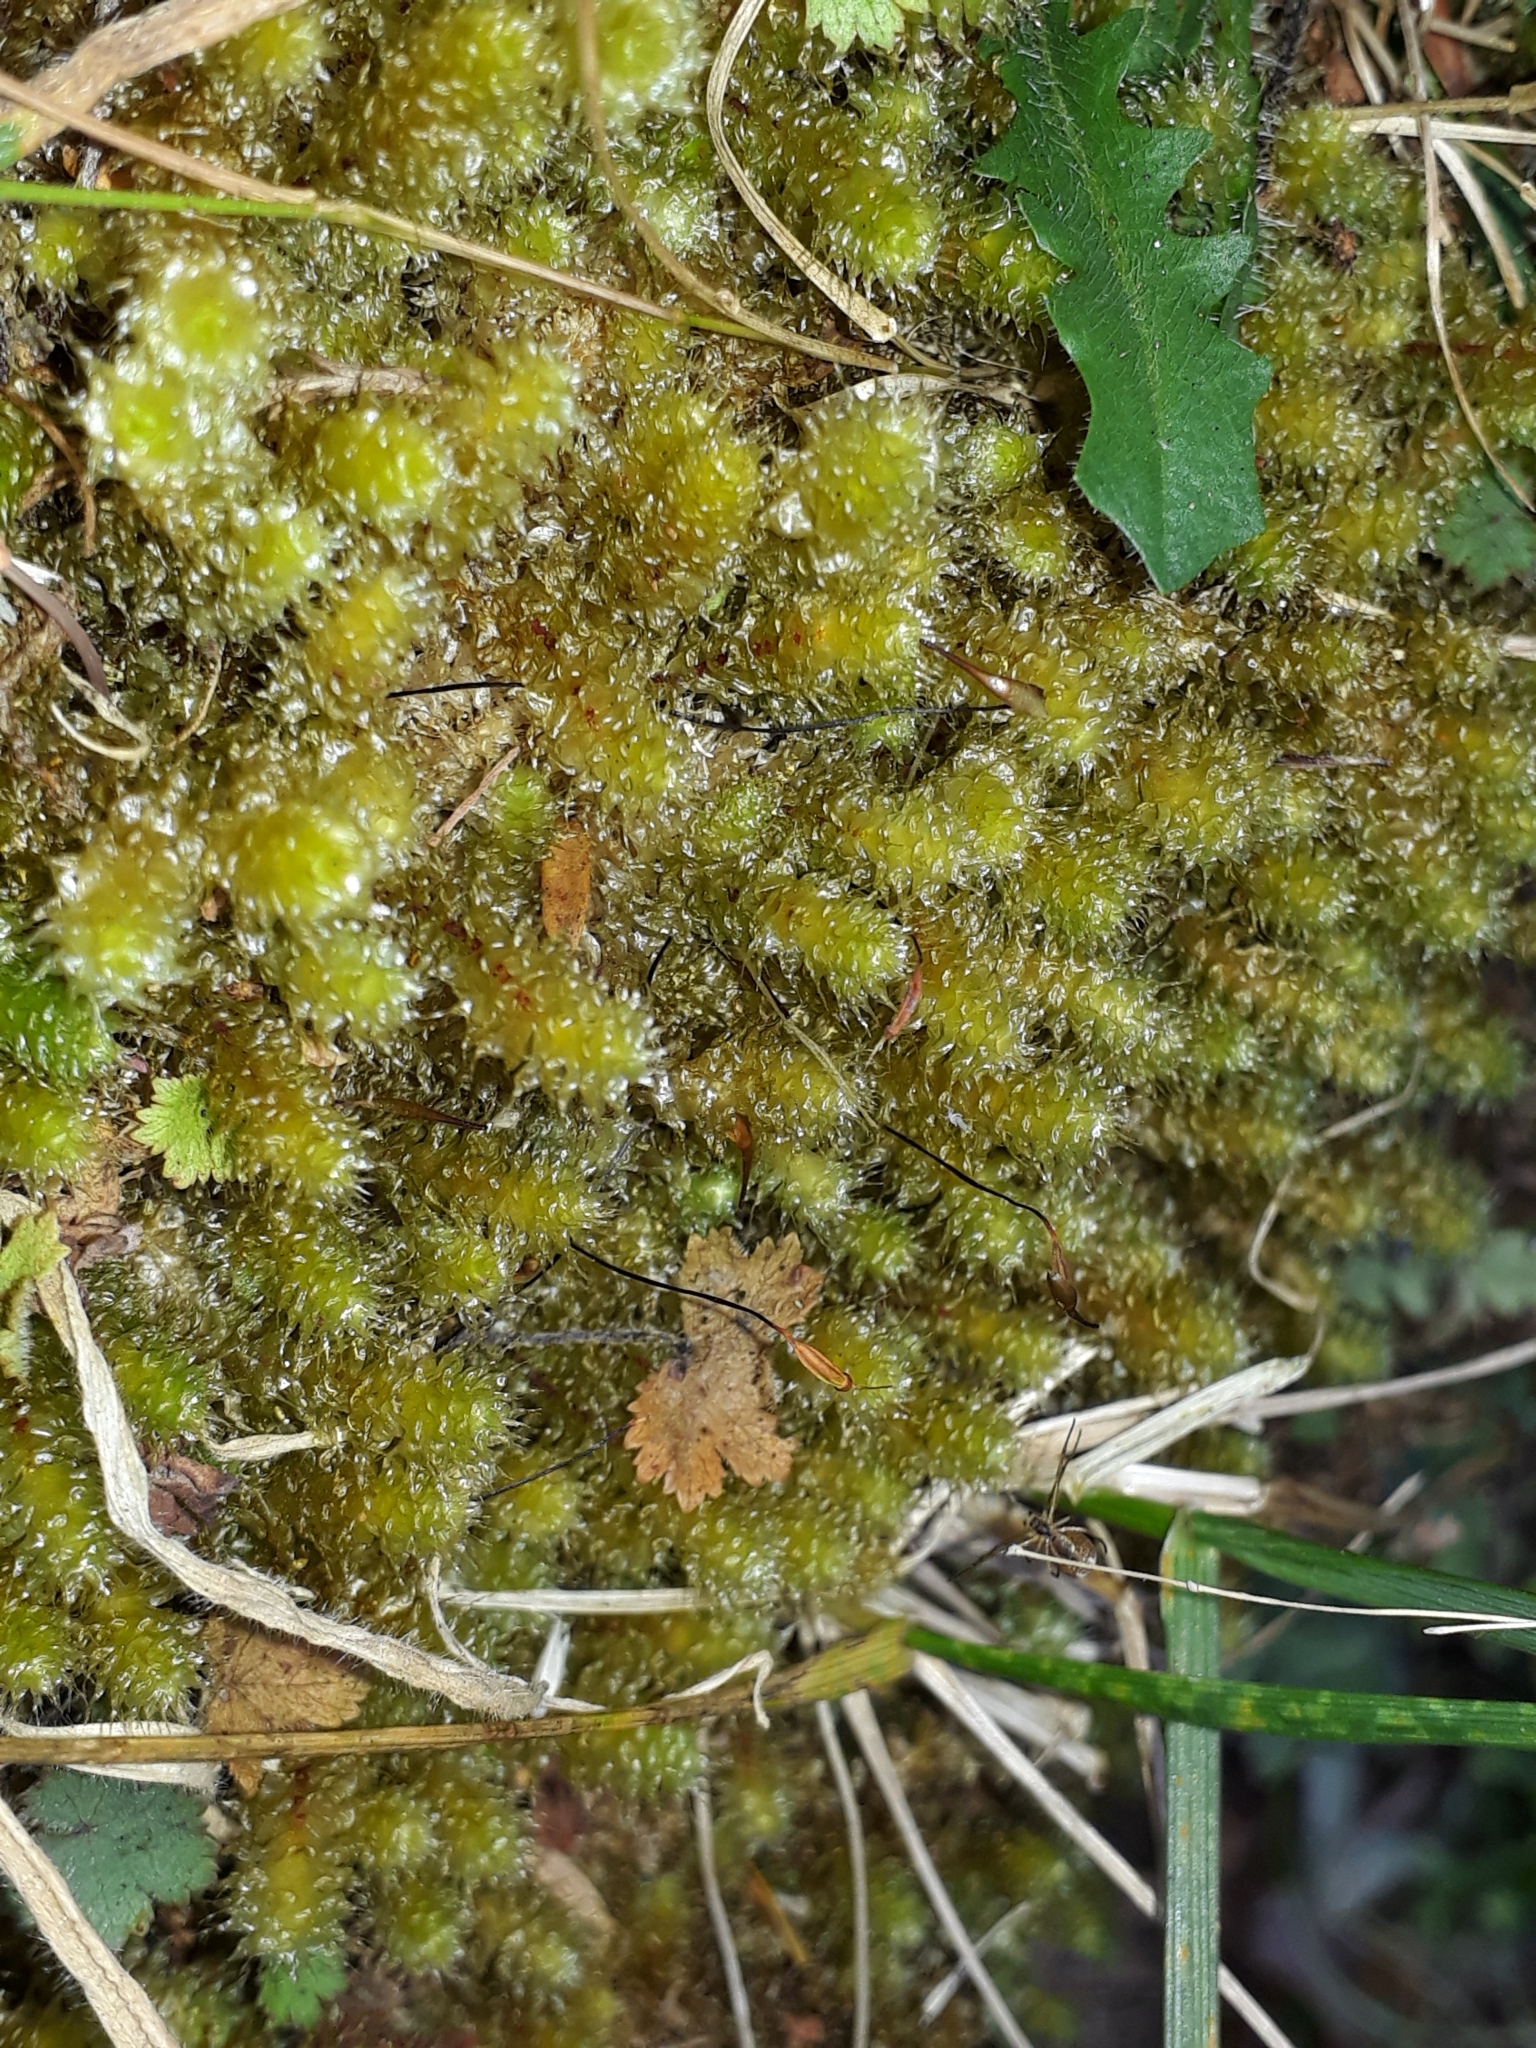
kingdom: Plantae
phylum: Bryophyta
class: Bryopsida
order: Ptychomniales
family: Ptychomniaceae
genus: Ptychomnion
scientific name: Ptychomnion aciculare
